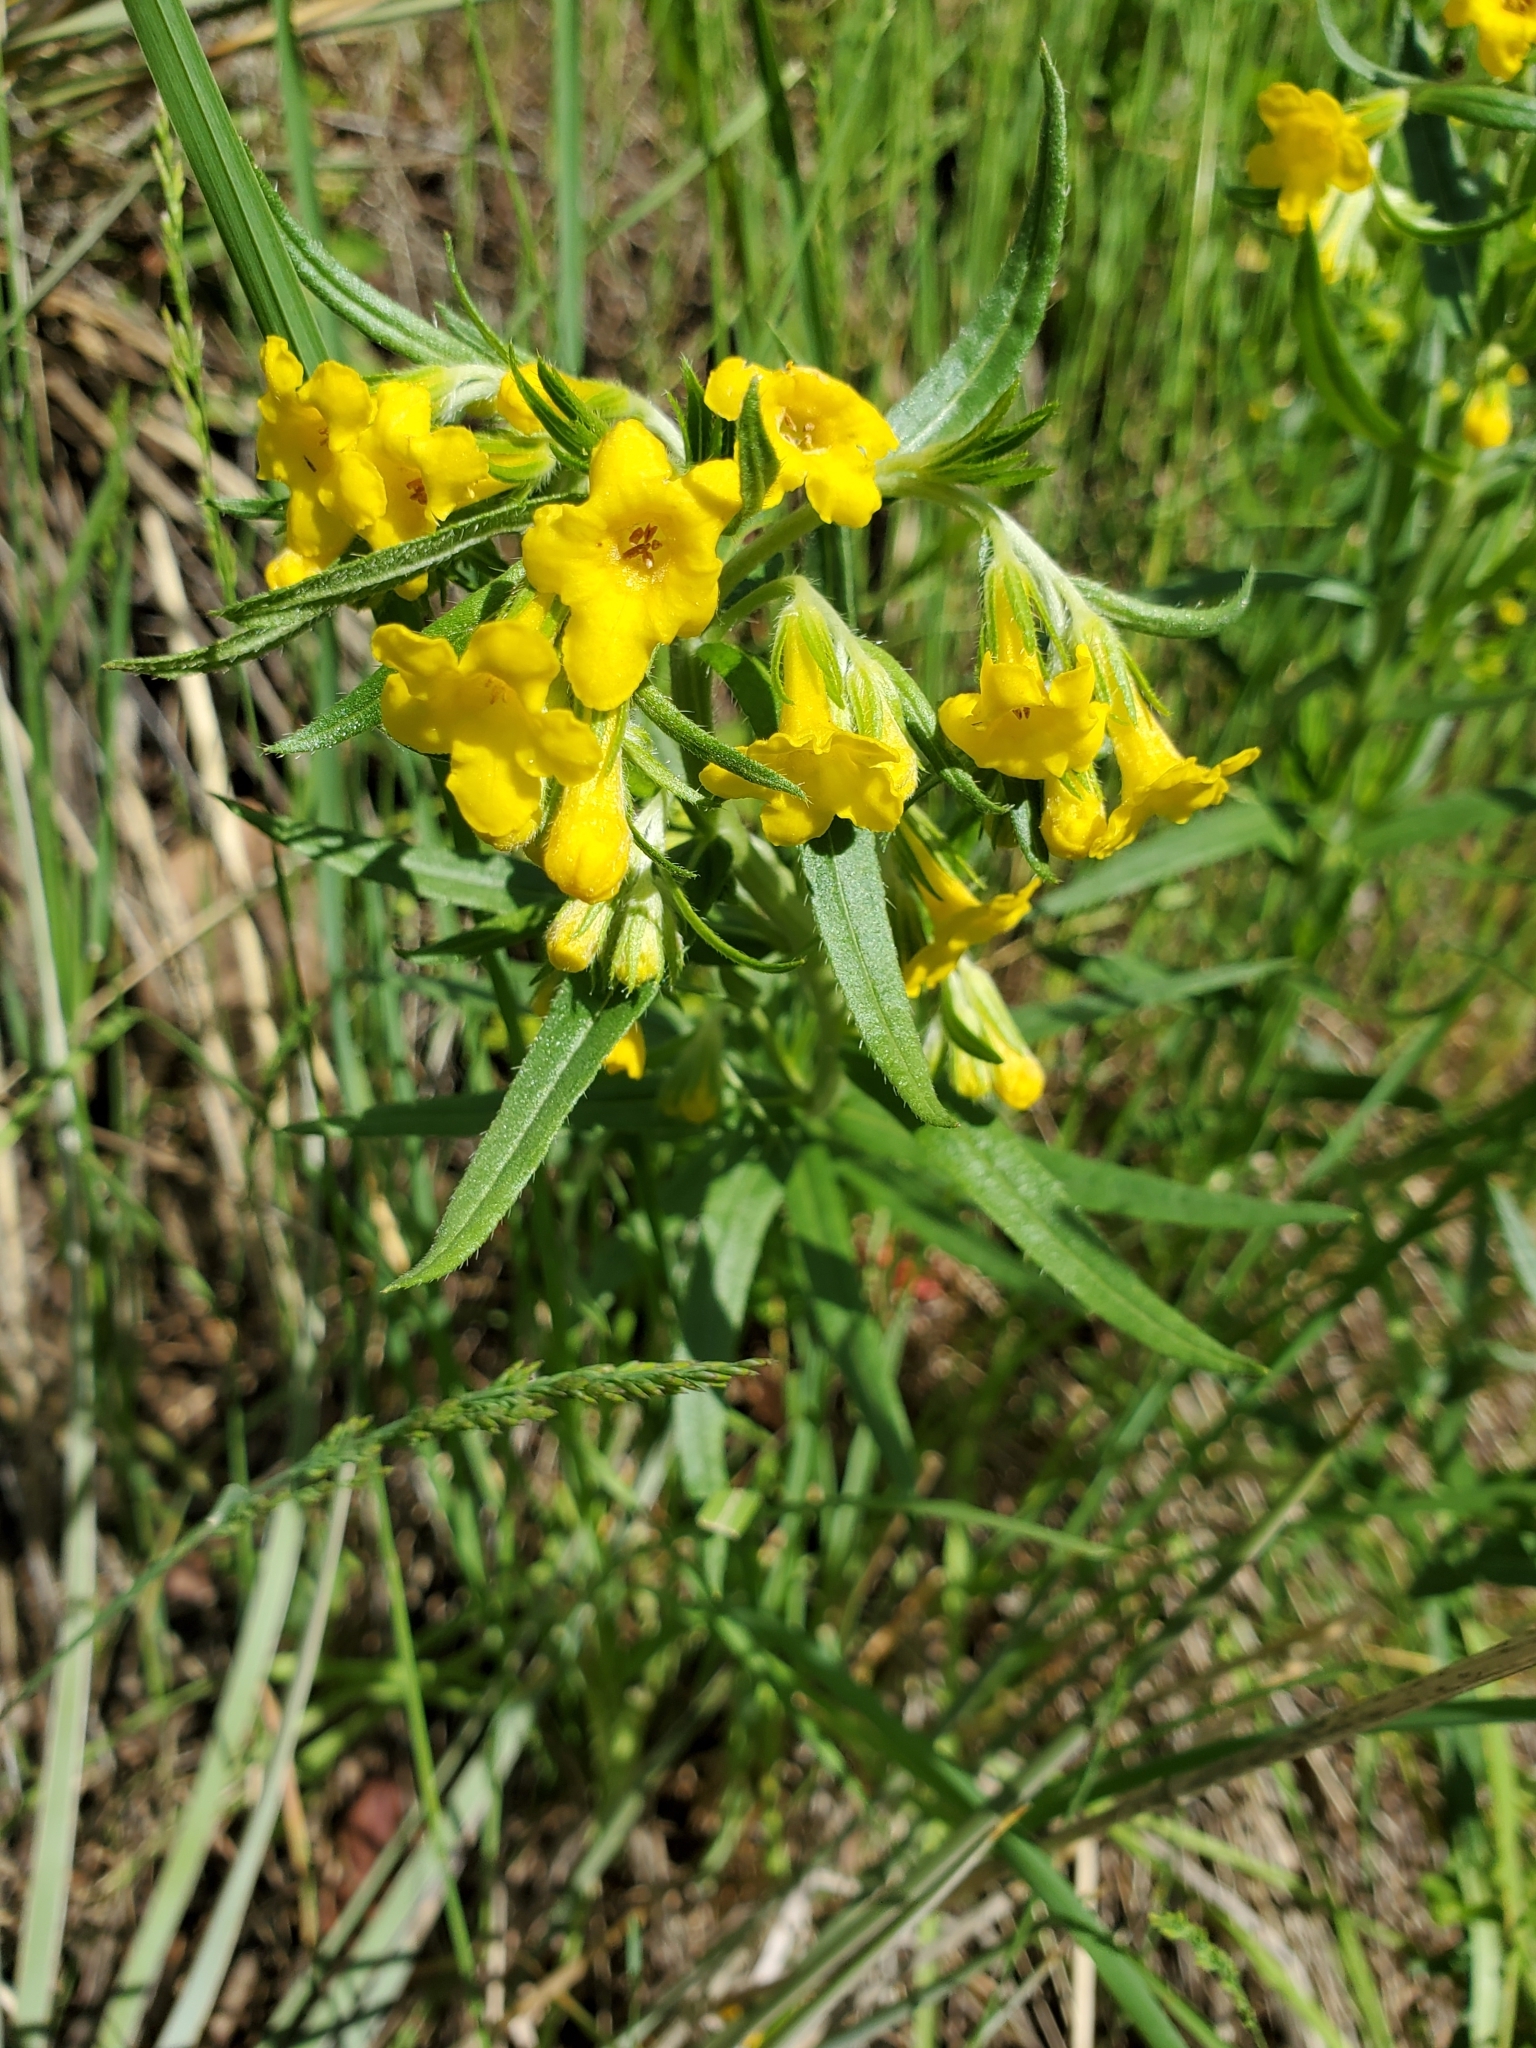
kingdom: Plantae
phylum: Tracheophyta
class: Magnoliopsida
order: Boraginales
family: Boraginaceae
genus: Lithospermum
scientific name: Lithospermum multiflorum
